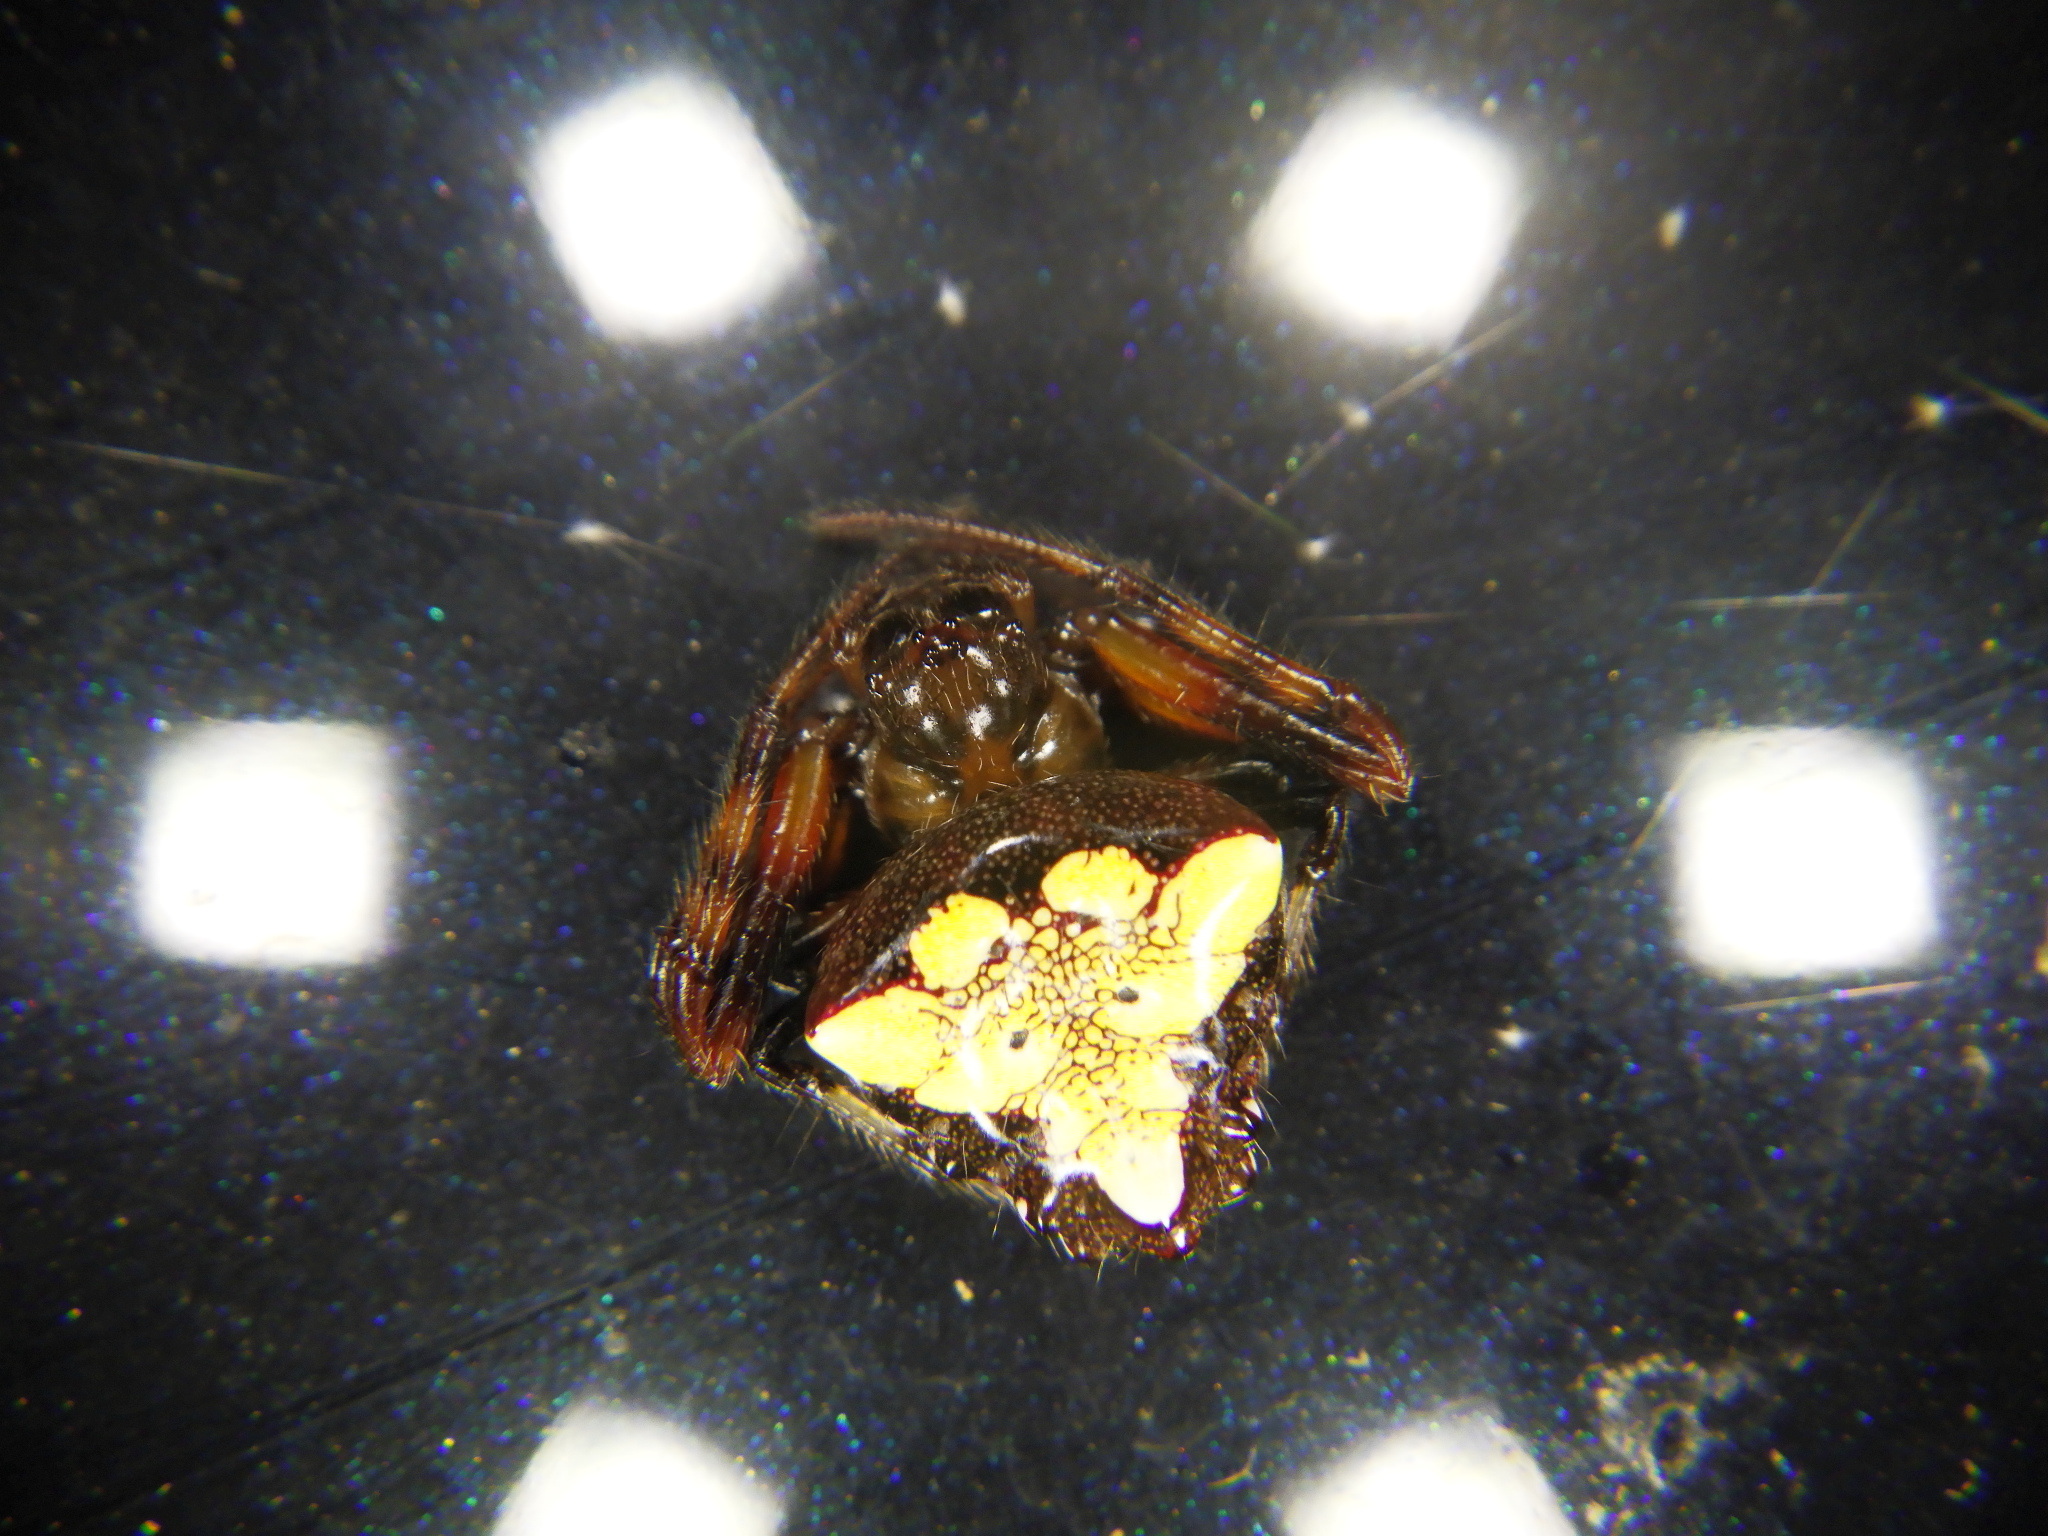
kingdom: Animalia
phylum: Arthropoda
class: Arachnida
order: Araneae
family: Araneidae
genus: Verrucosa
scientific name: Verrucosa arenata
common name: Orb weavers
